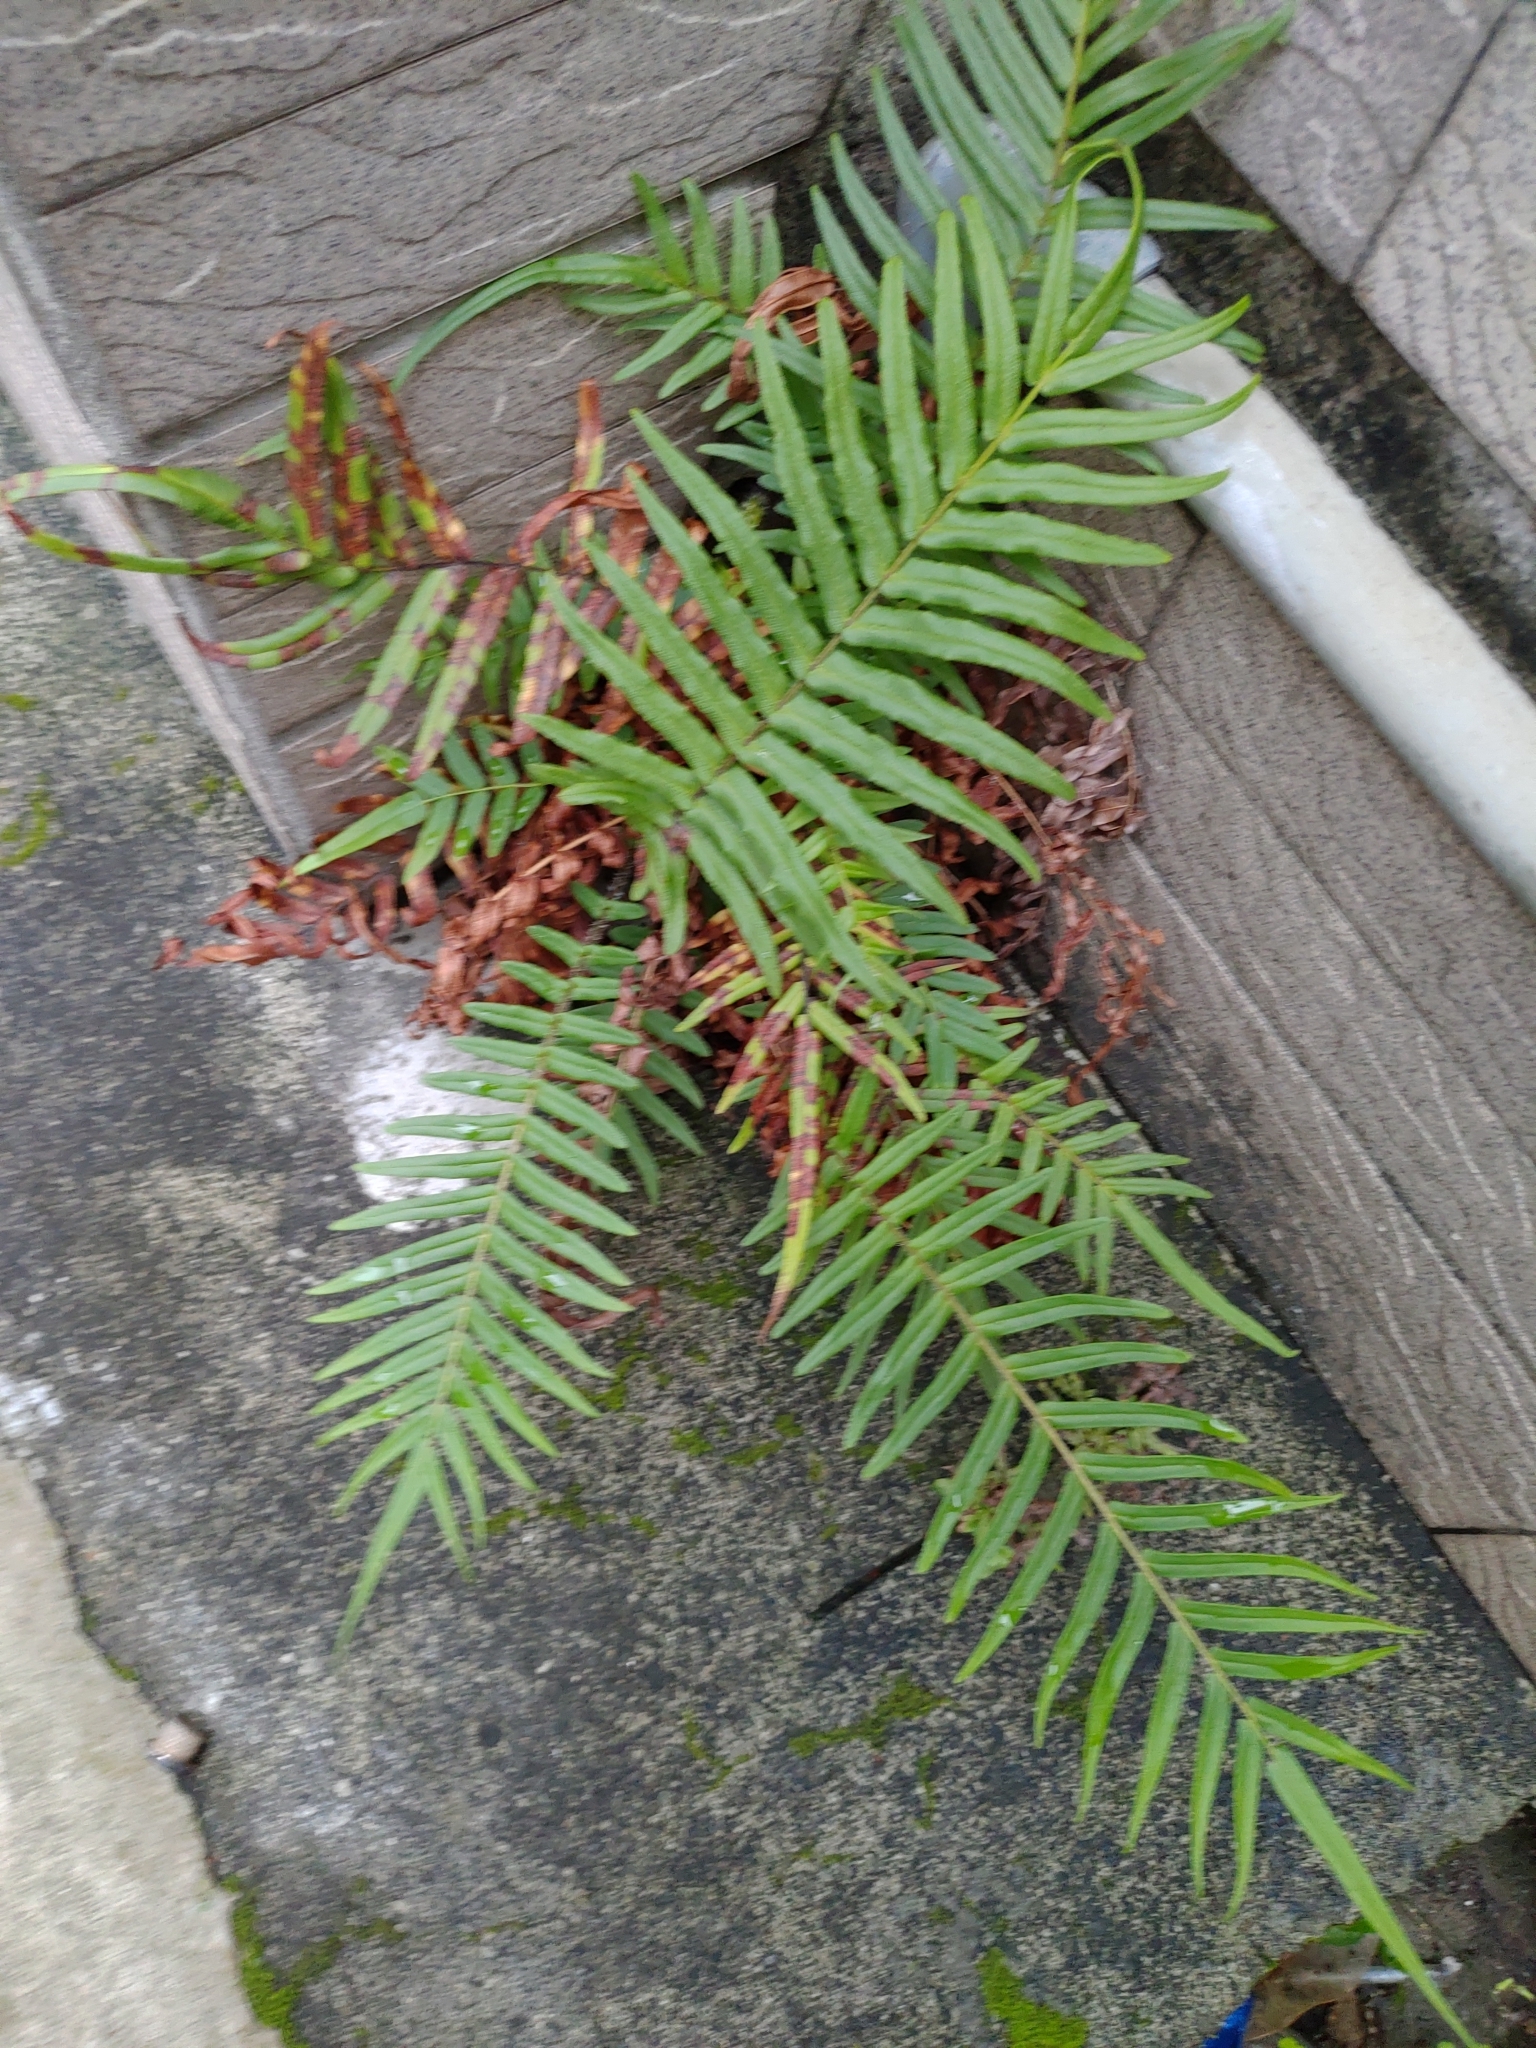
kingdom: Plantae
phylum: Tracheophyta
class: Polypodiopsida
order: Polypodiales
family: Pteridaceae
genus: Pteris
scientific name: Pteris vittata
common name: Ladder brake
